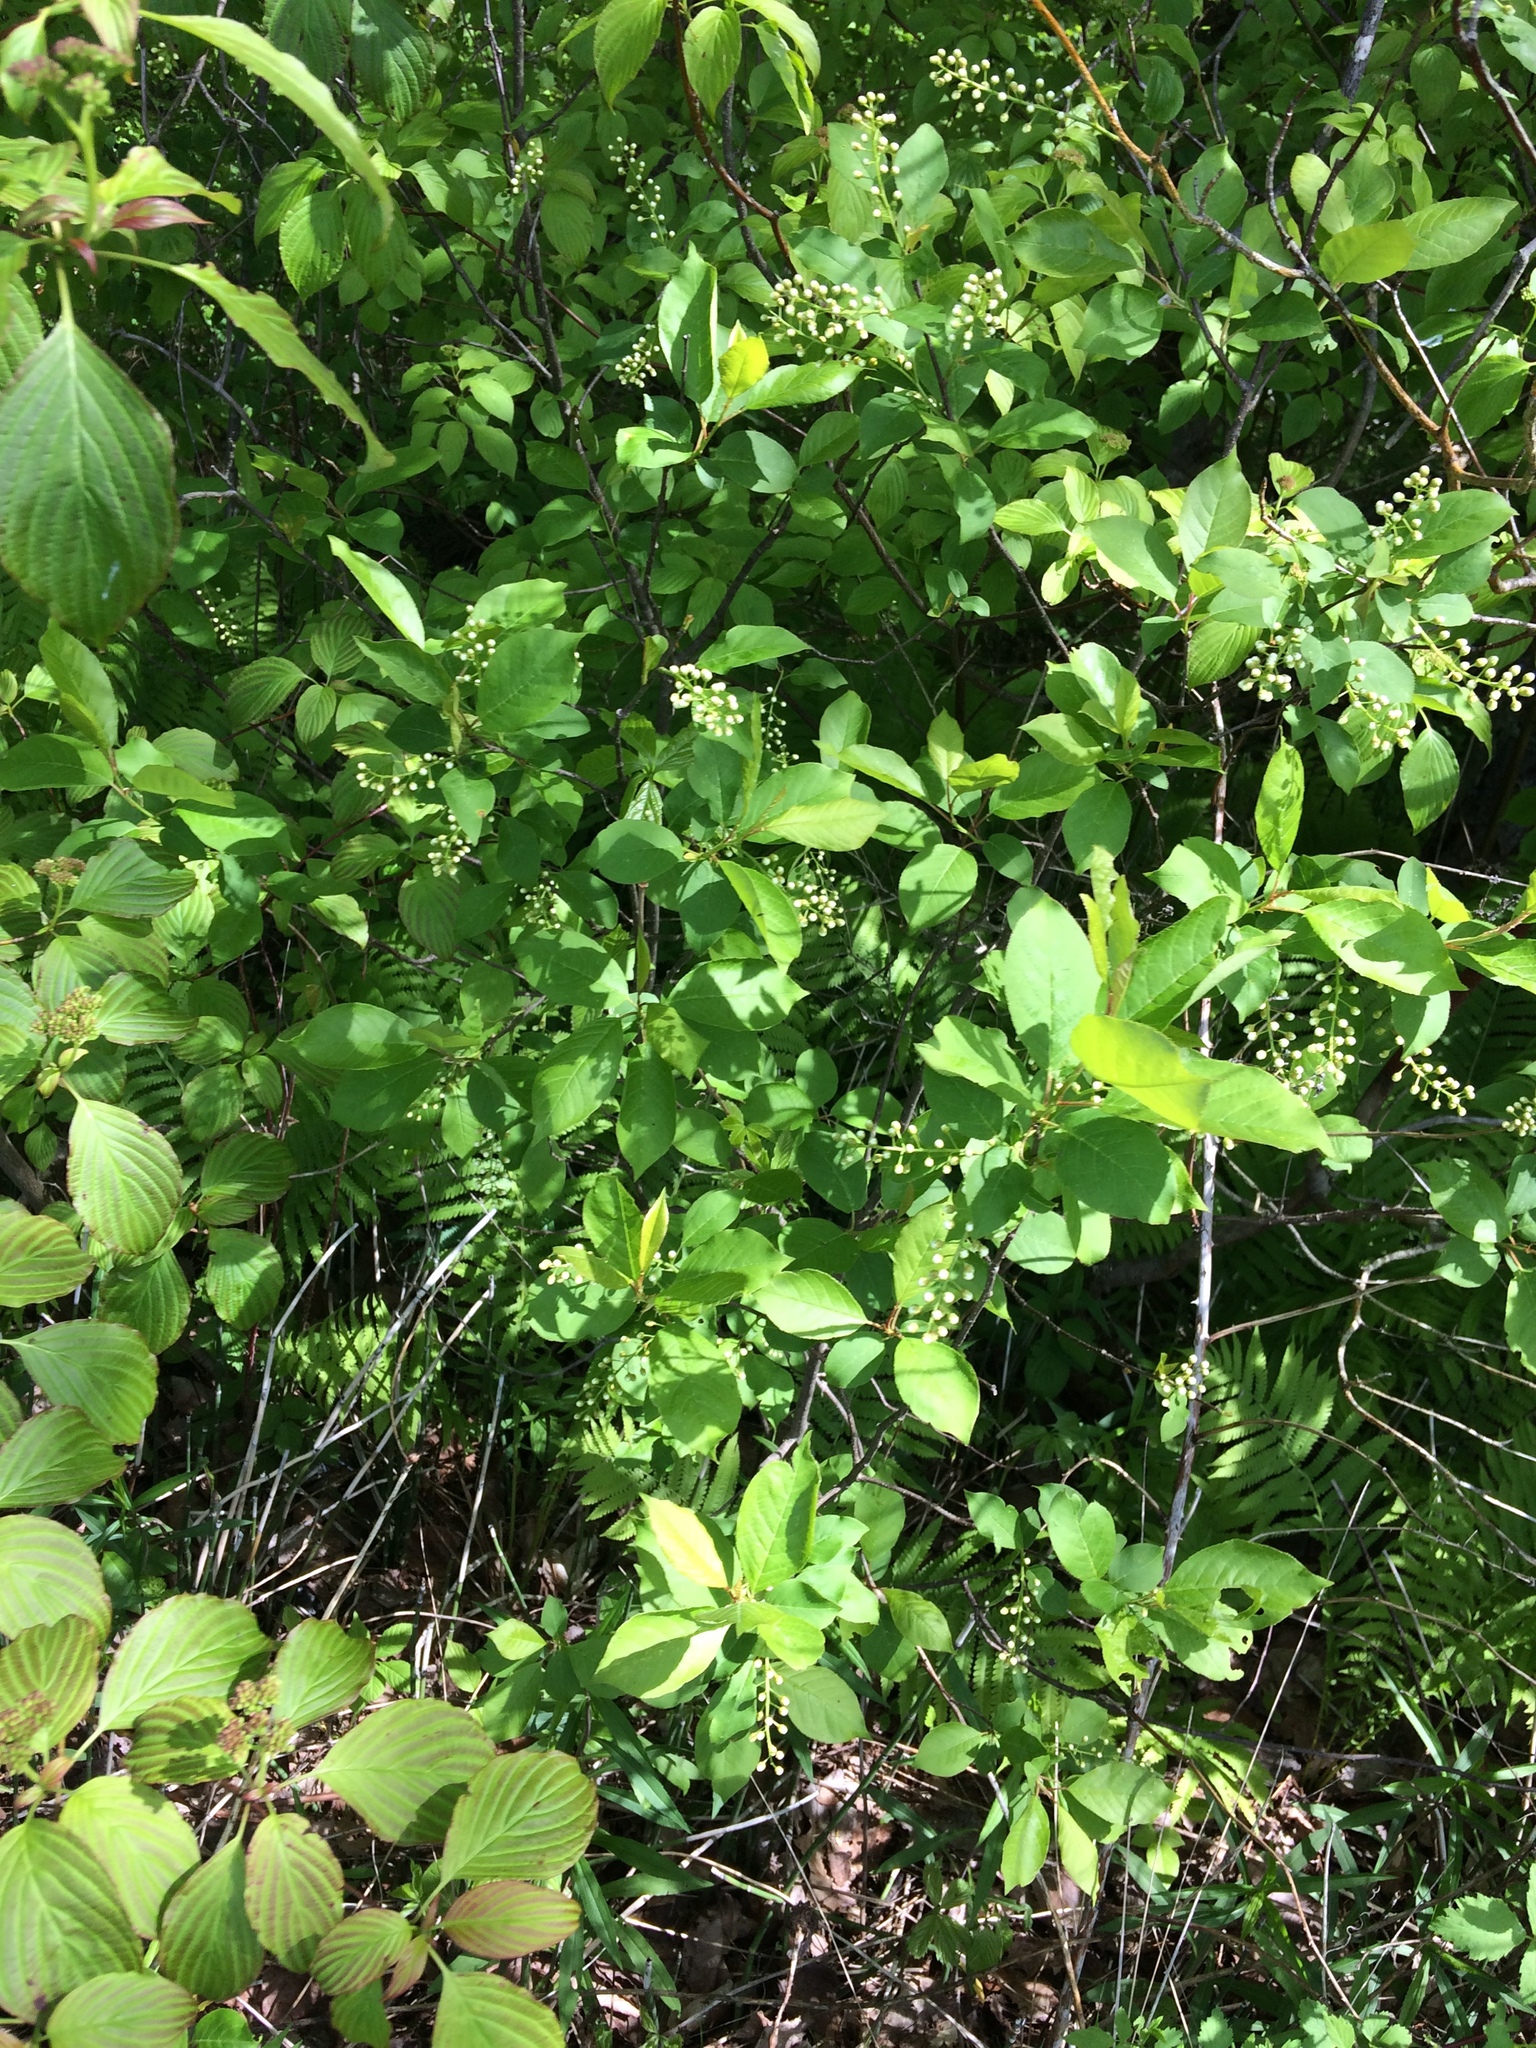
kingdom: Plantae
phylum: Tracheophyta
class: Magnoliopsida
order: Rosales
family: Rosaceae
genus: Prunus
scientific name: Prunus virginiana
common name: Chokecherry
